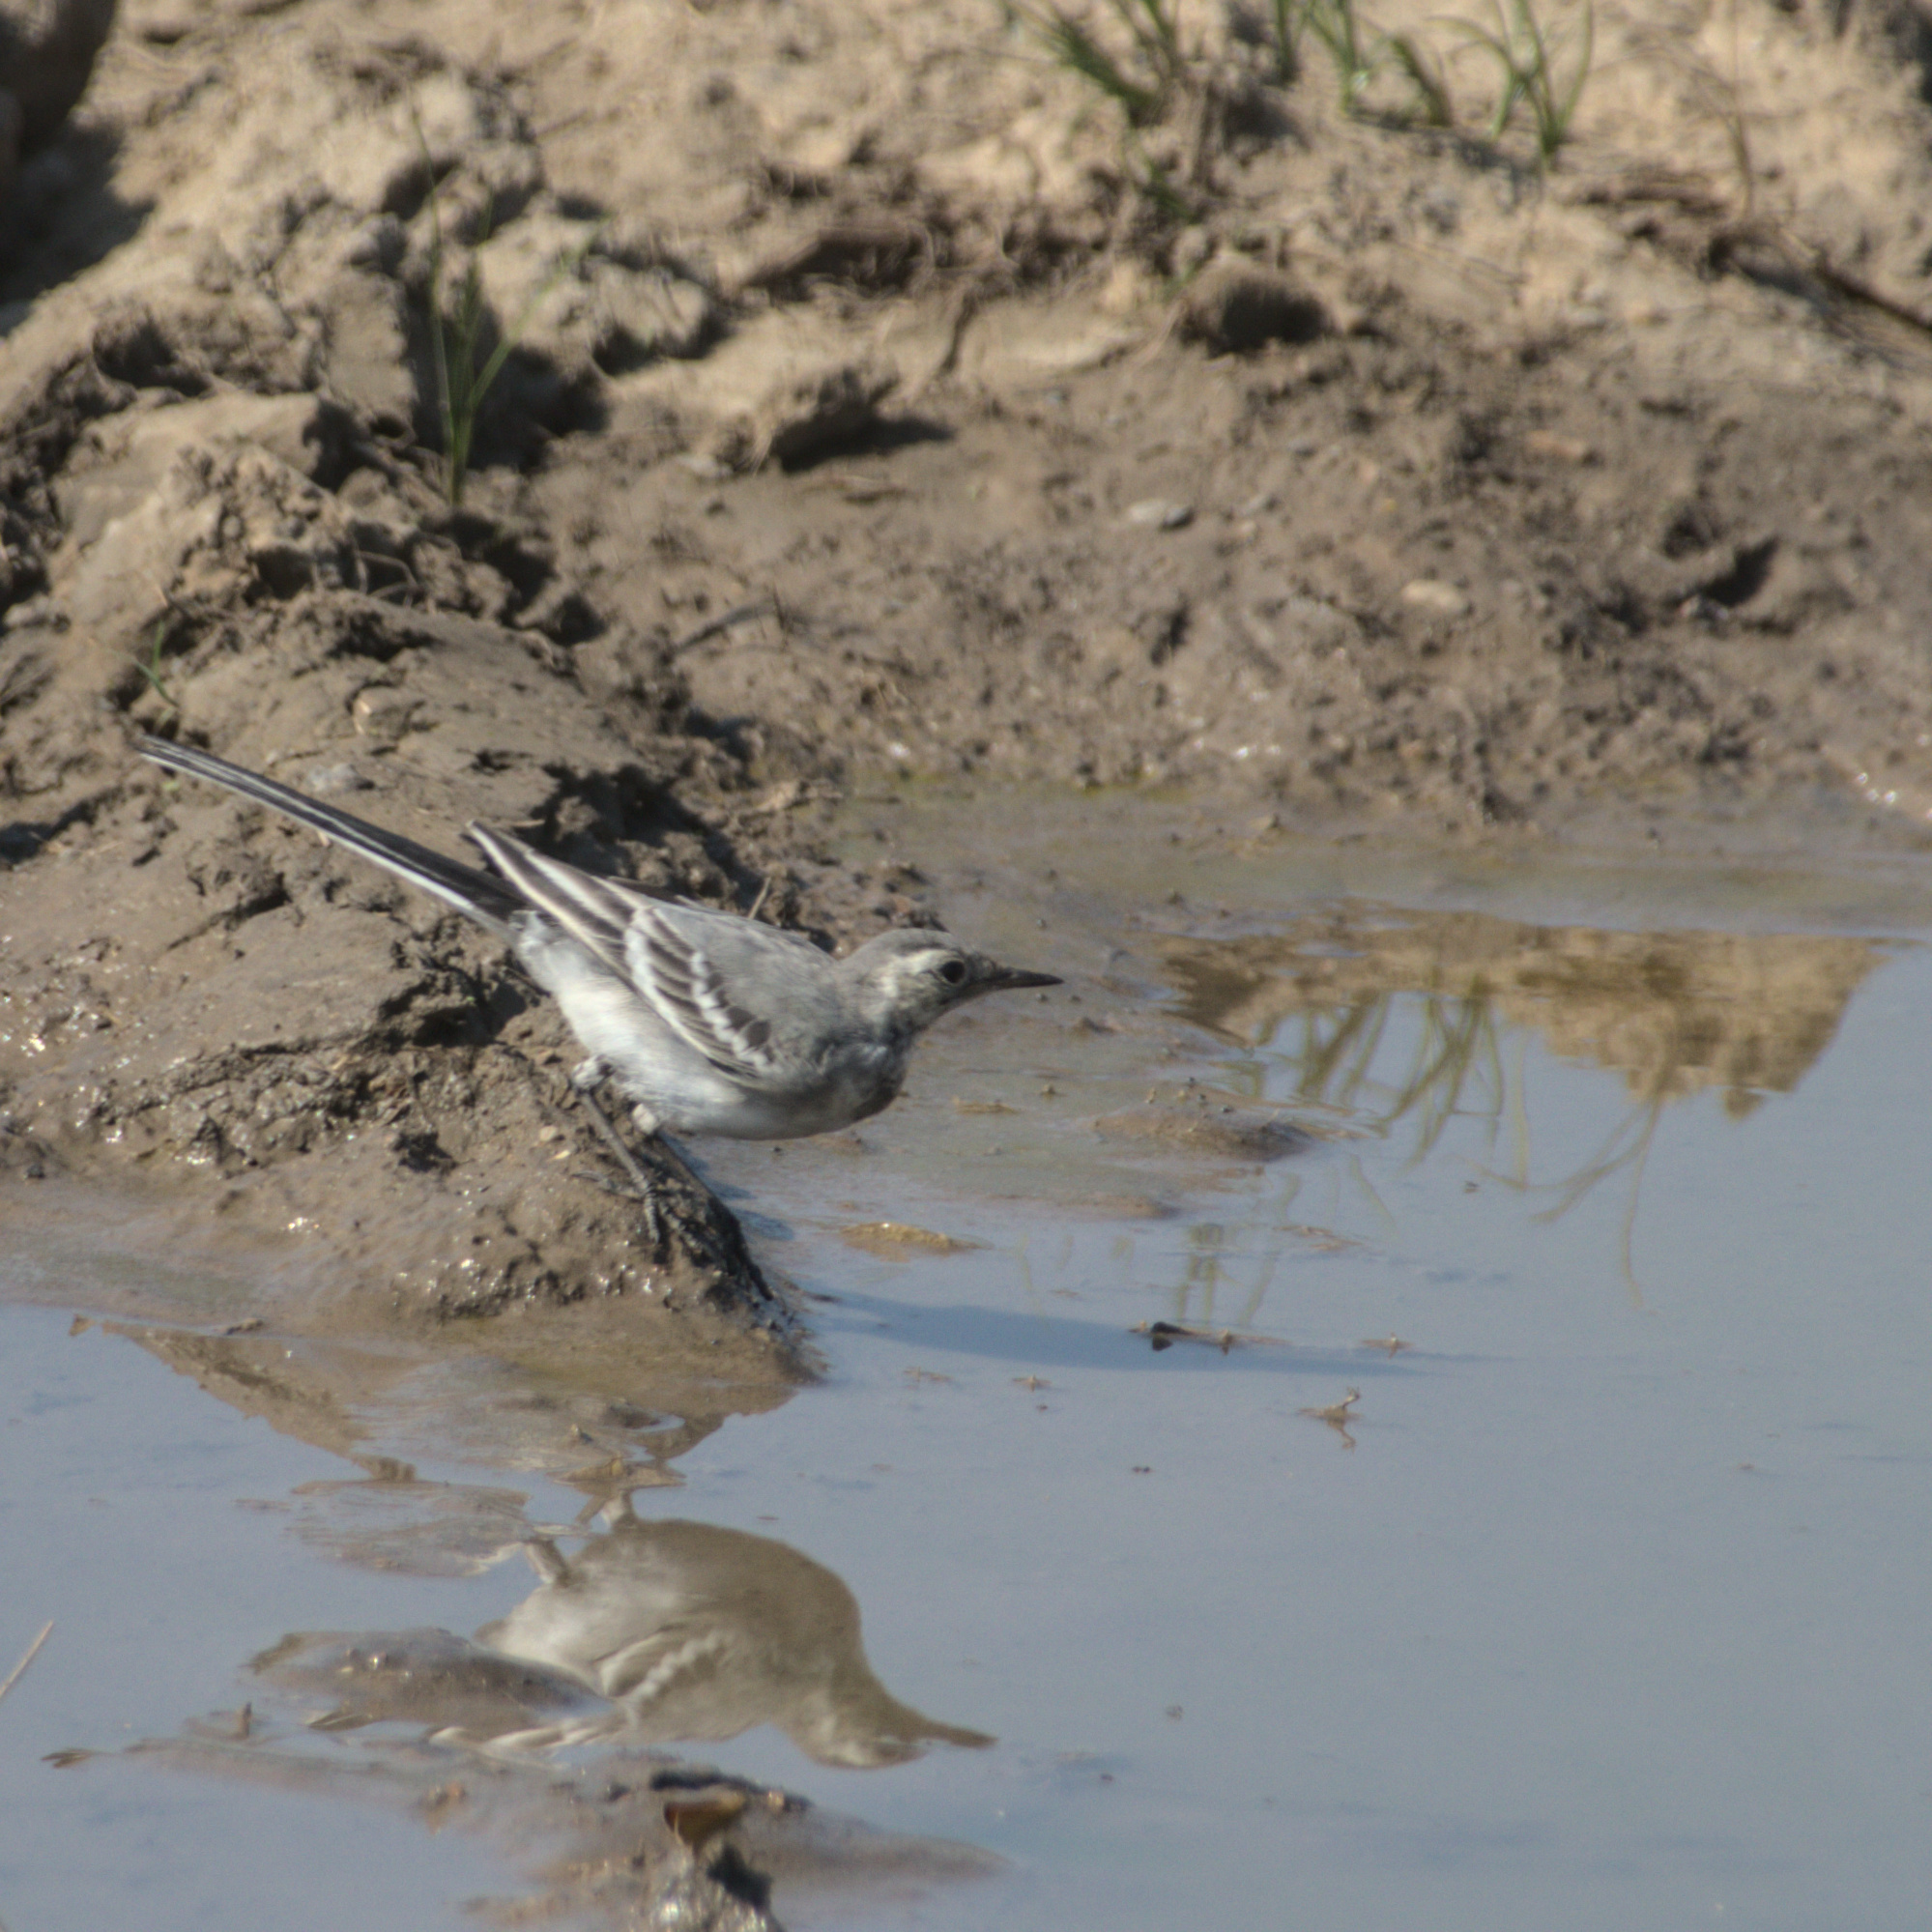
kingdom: Animalia
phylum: Chordata
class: Aves
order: Passeriformes
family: Motacillidae
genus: Motacilla
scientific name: Motacilla alba
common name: White wagtail
